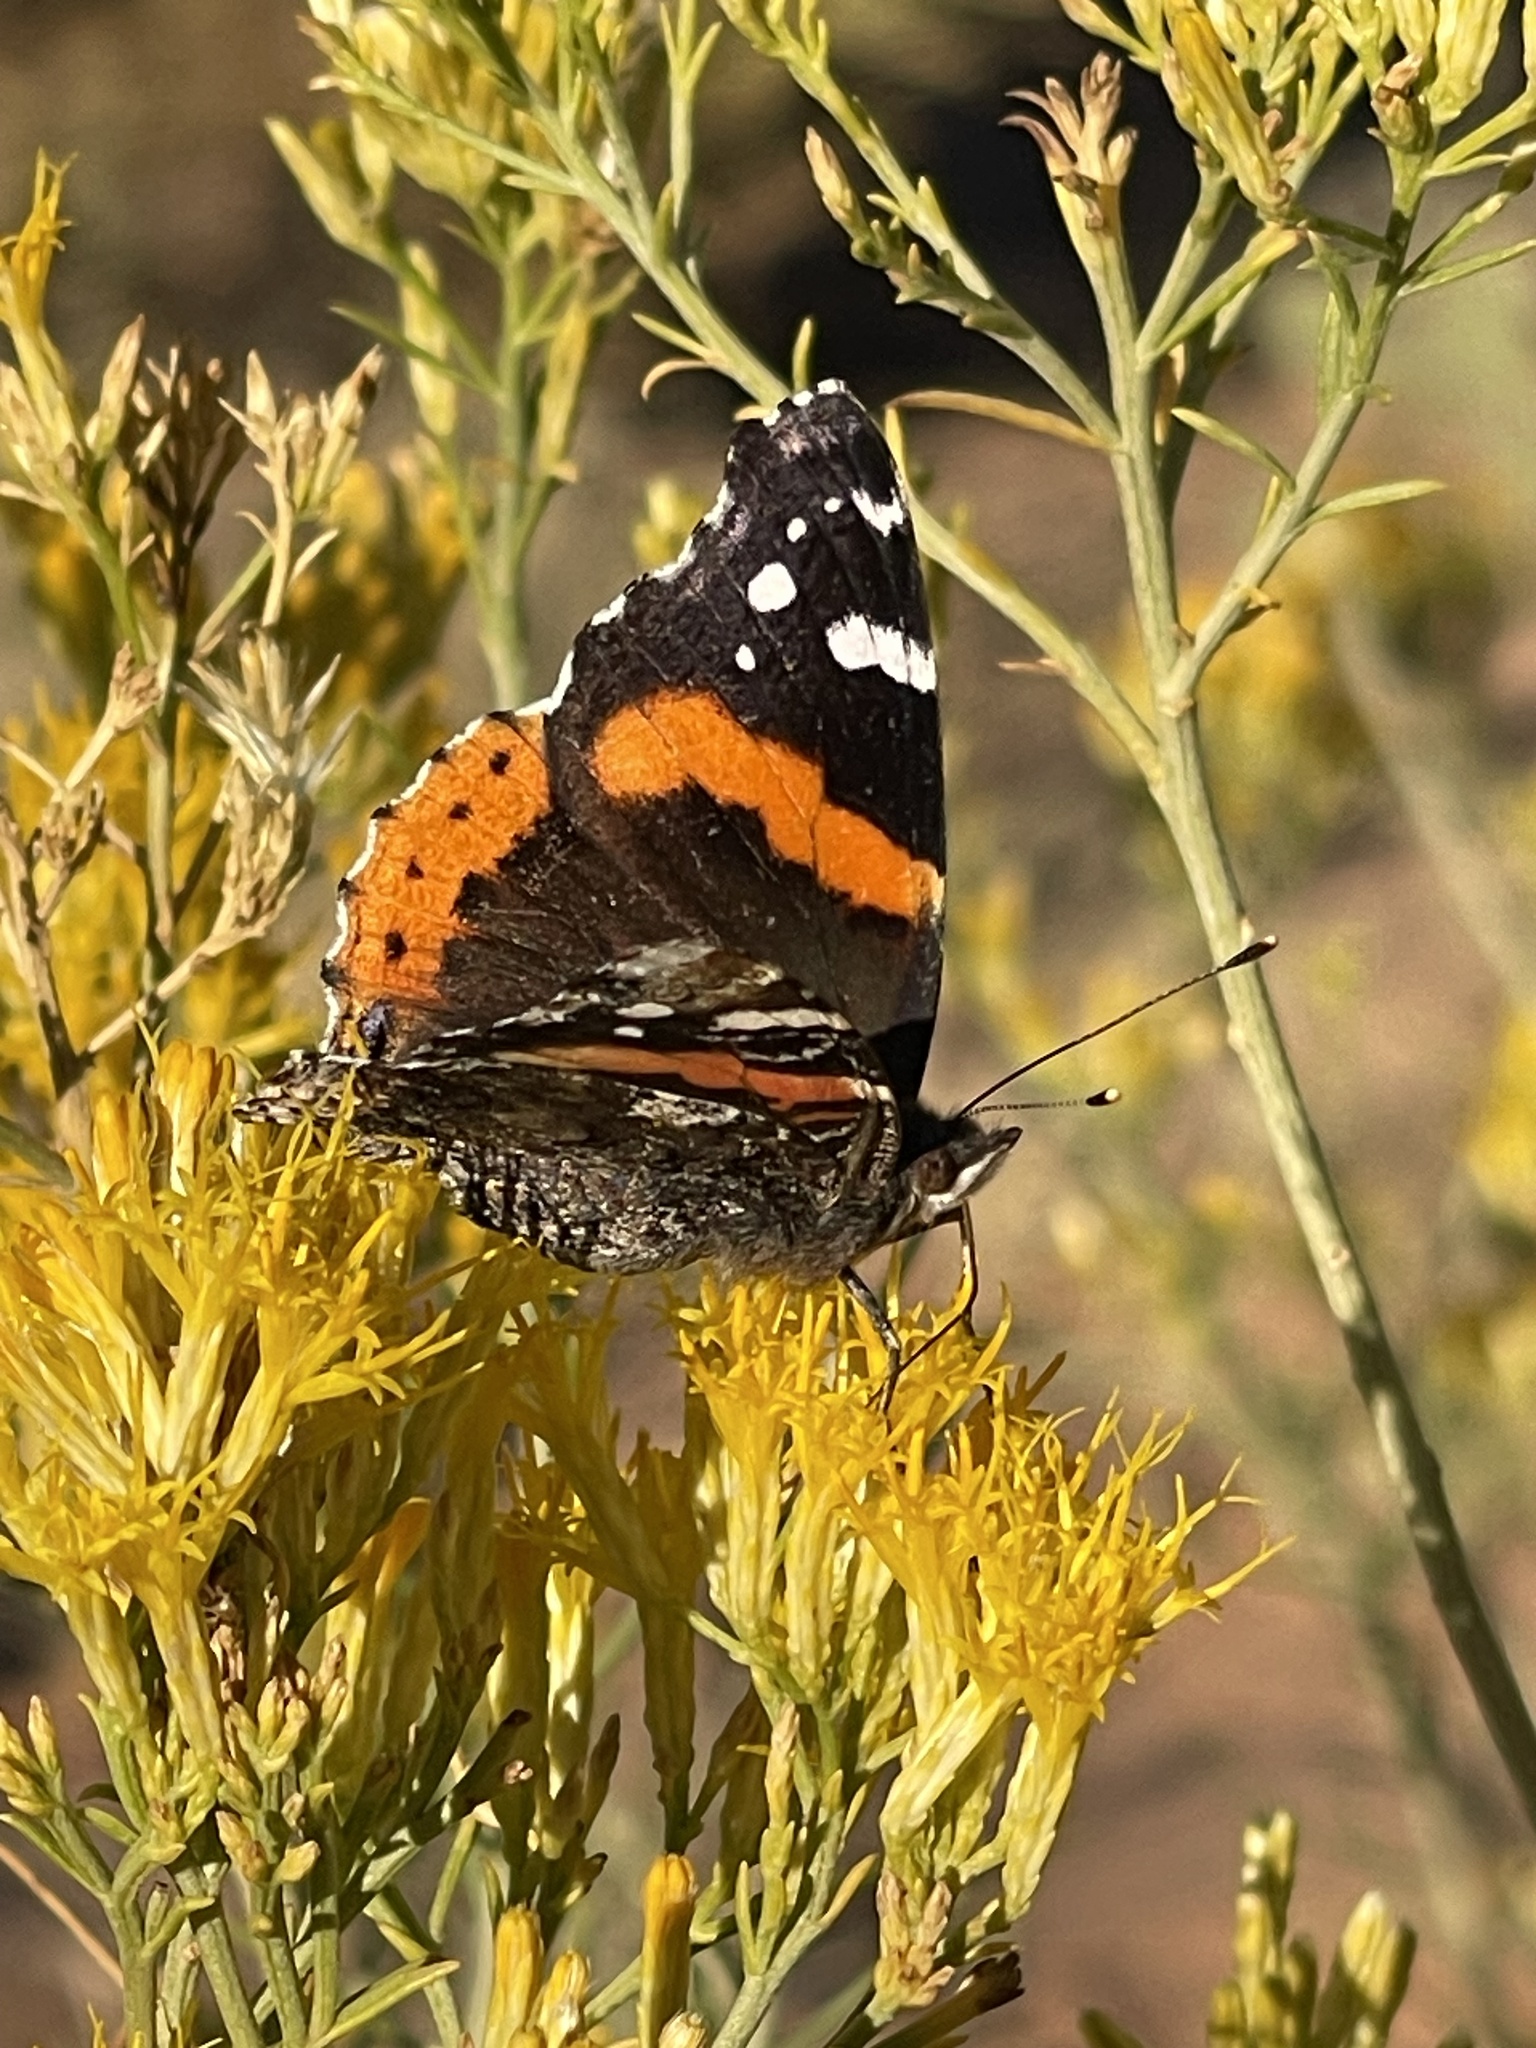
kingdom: Animalia
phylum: Arthropoda
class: Insecta
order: Lepidoptera
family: Nymphalidae
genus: Vanessa
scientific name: Vanessa atalanta
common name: Red admiral
